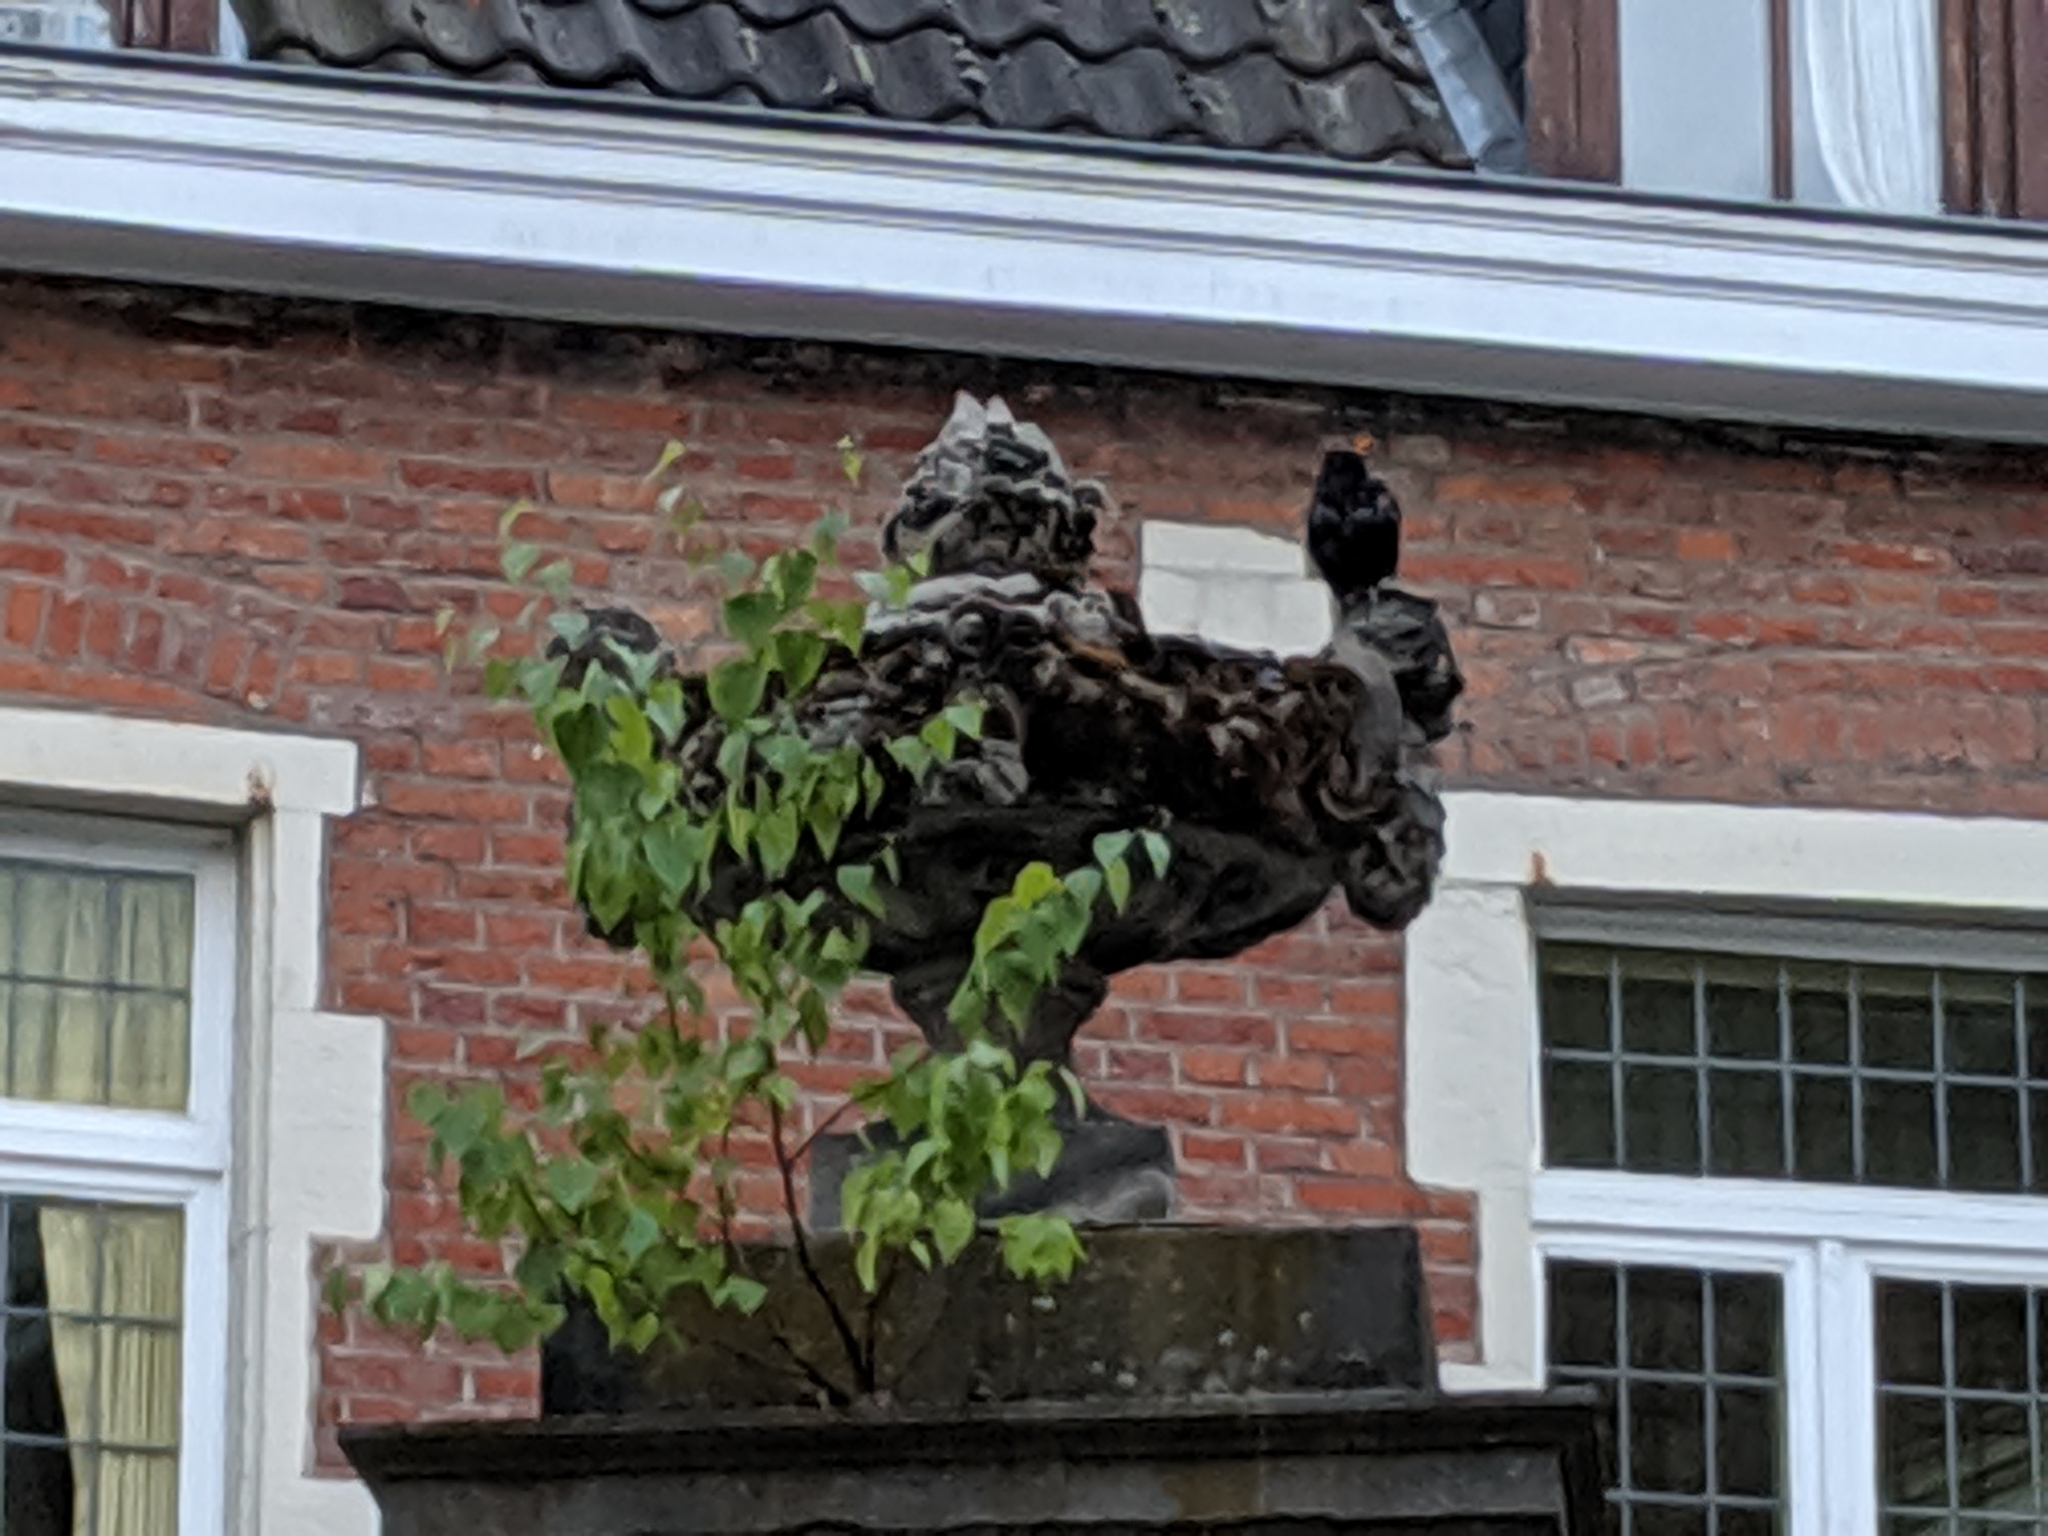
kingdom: Animalia
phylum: Chordata
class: Aves
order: Passeriformes
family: Turdidae
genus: Turdus
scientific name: Turdus merula
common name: Common blackbird
